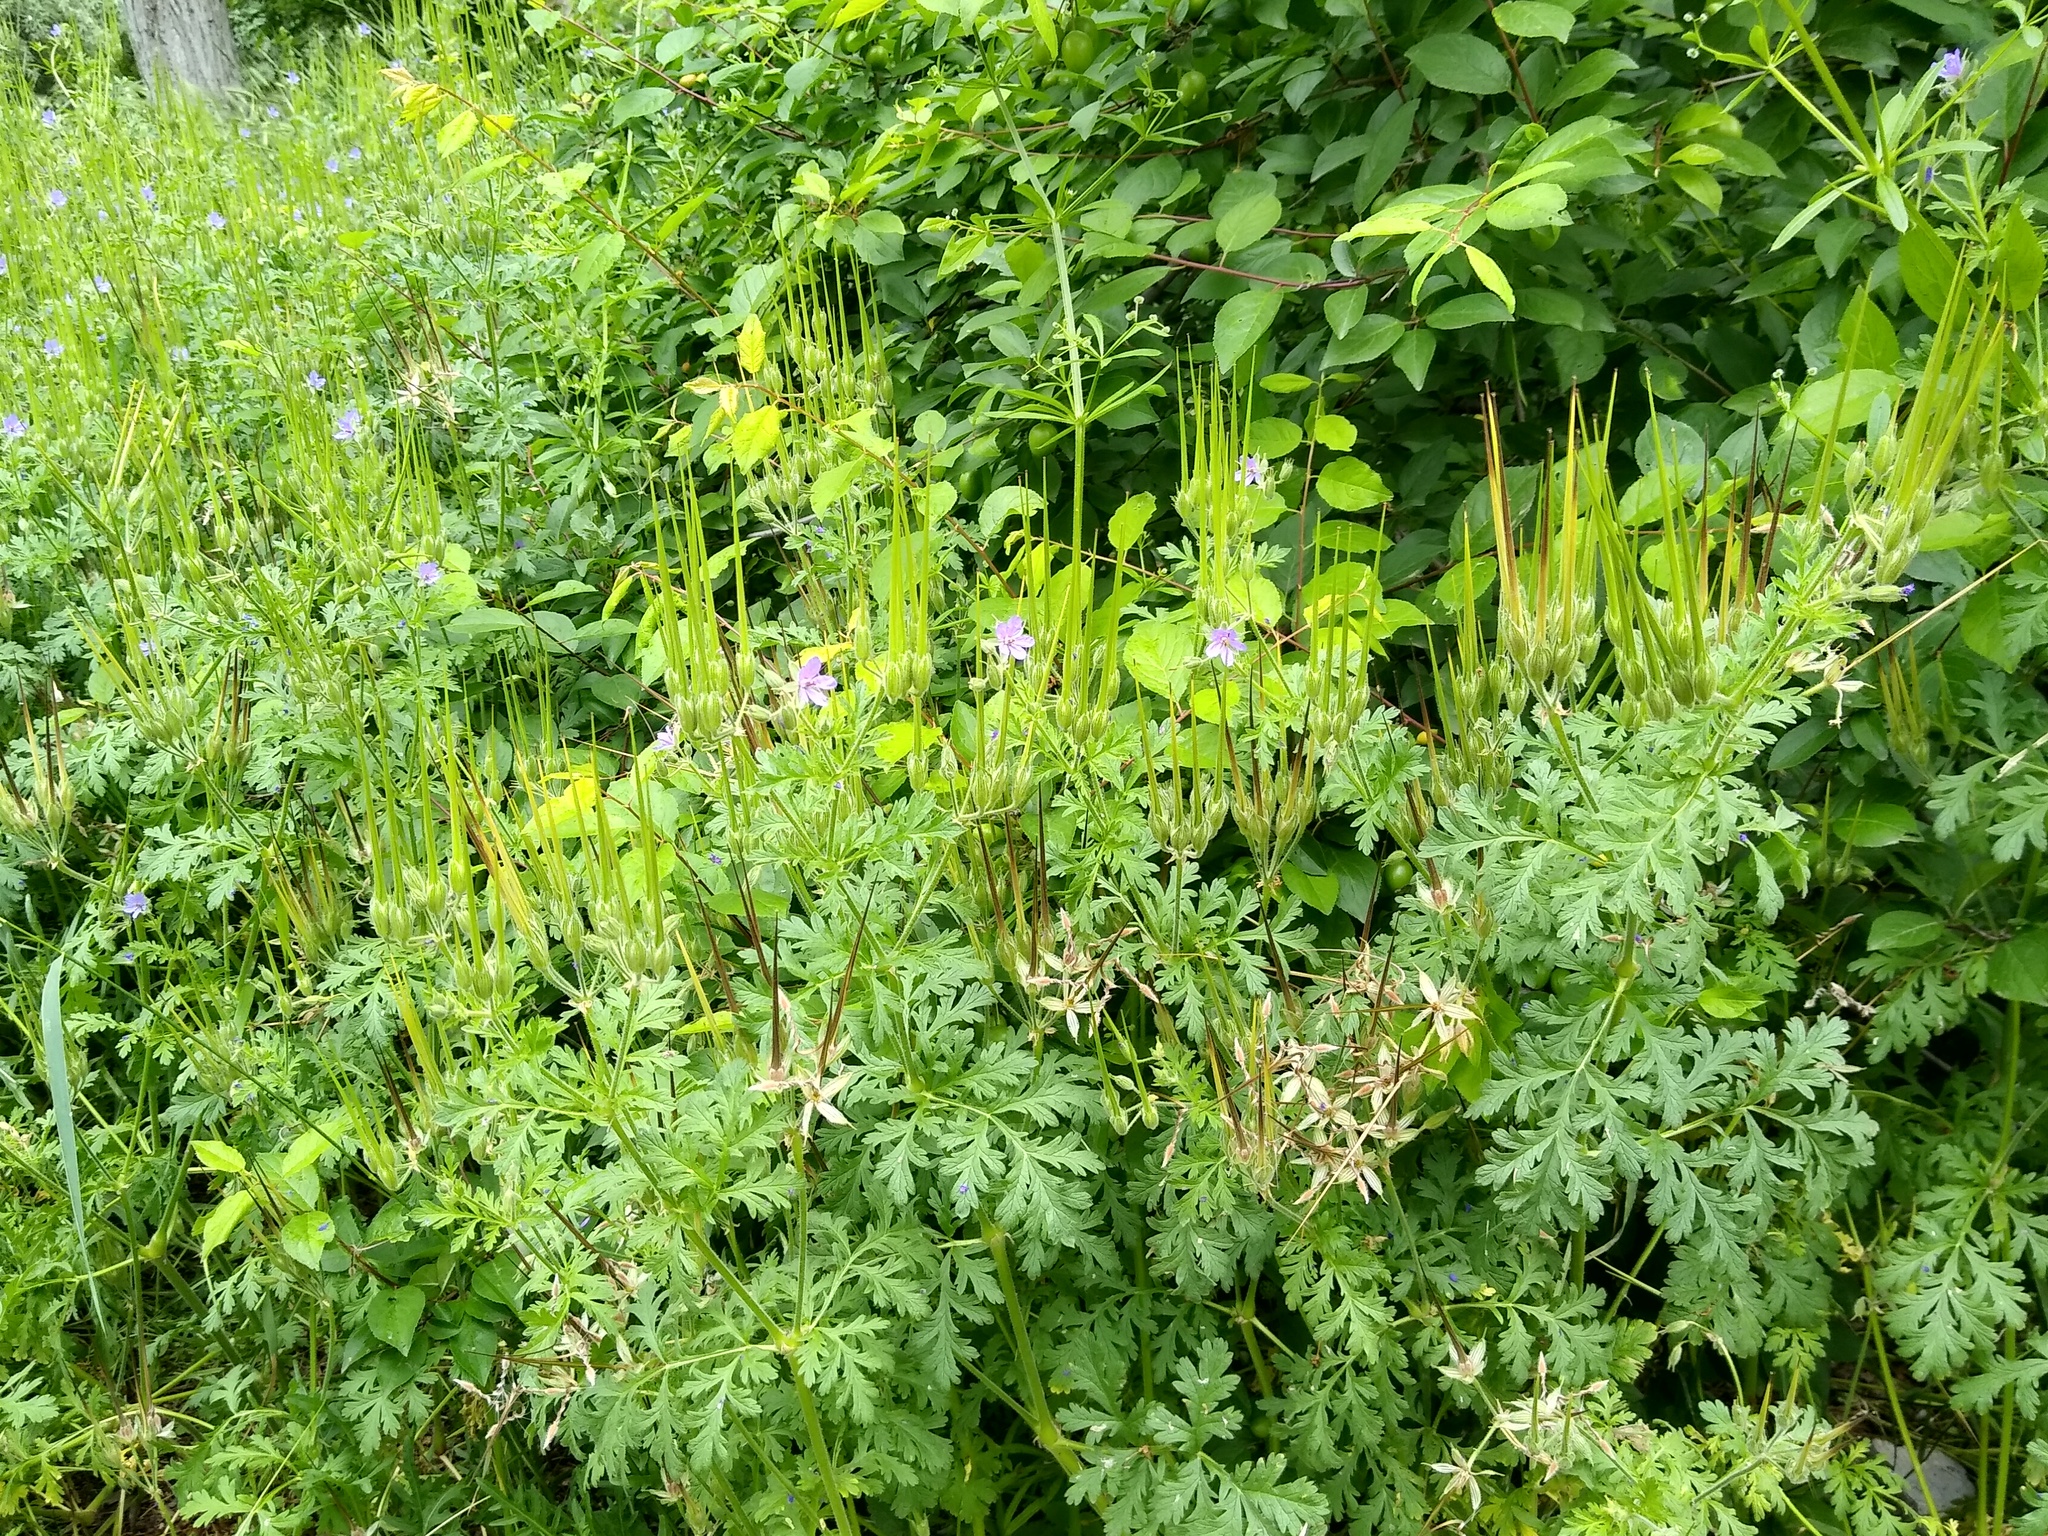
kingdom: Plantae
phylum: Tracheophyta
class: Magnoliopsida
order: Geraniales
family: Geraniaceae
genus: Erodium
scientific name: Erodium ciconium
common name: Common stork's bill
